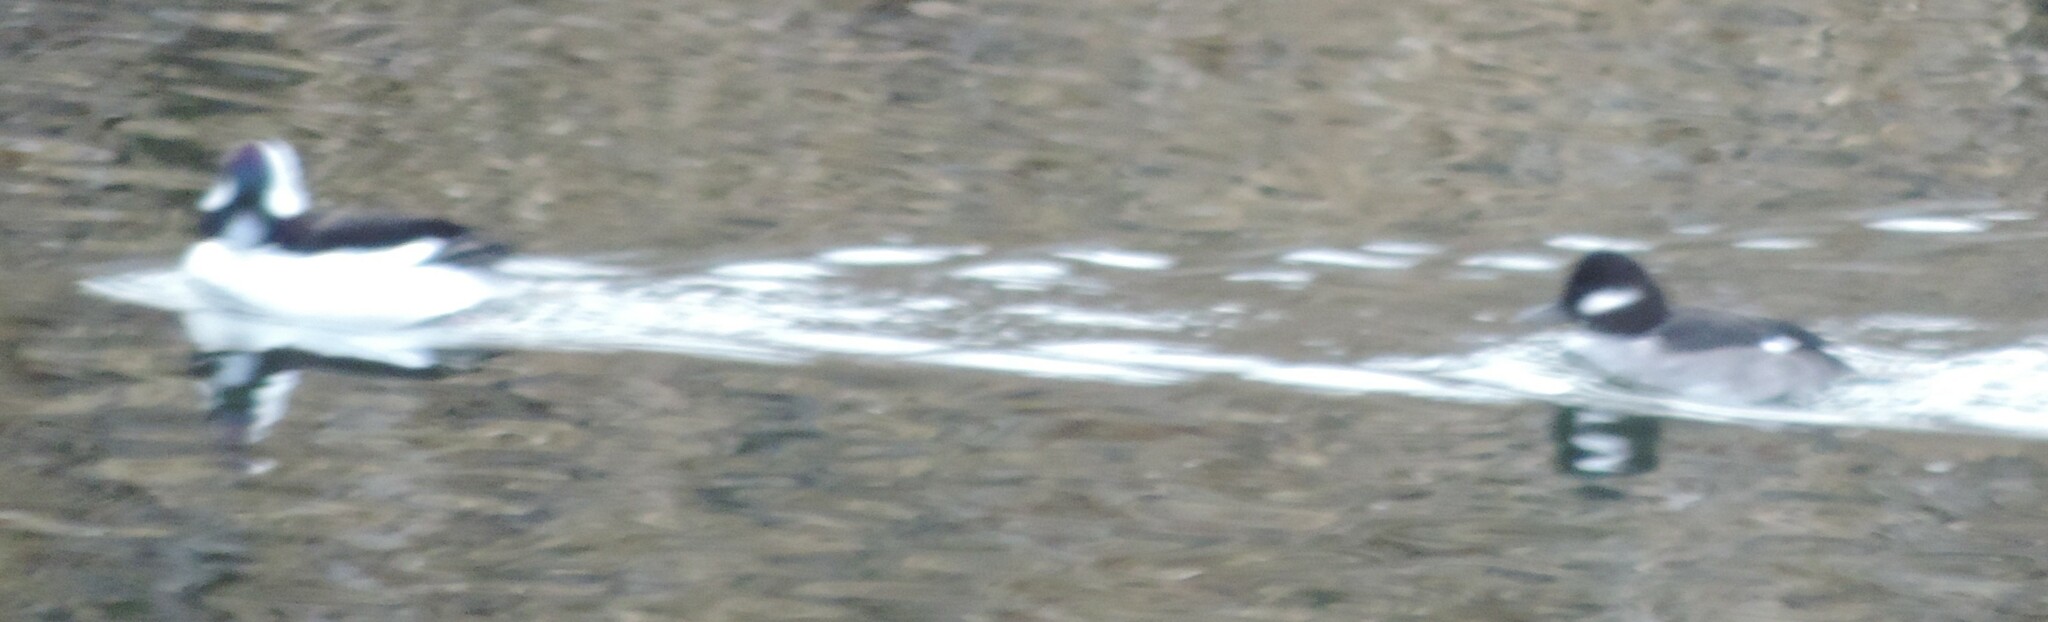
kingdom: Animalia
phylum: Chordata
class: Aves
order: Anseriformes
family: Anatidae
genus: Bucephala
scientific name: Bucephala albeola
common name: Bufflehead
